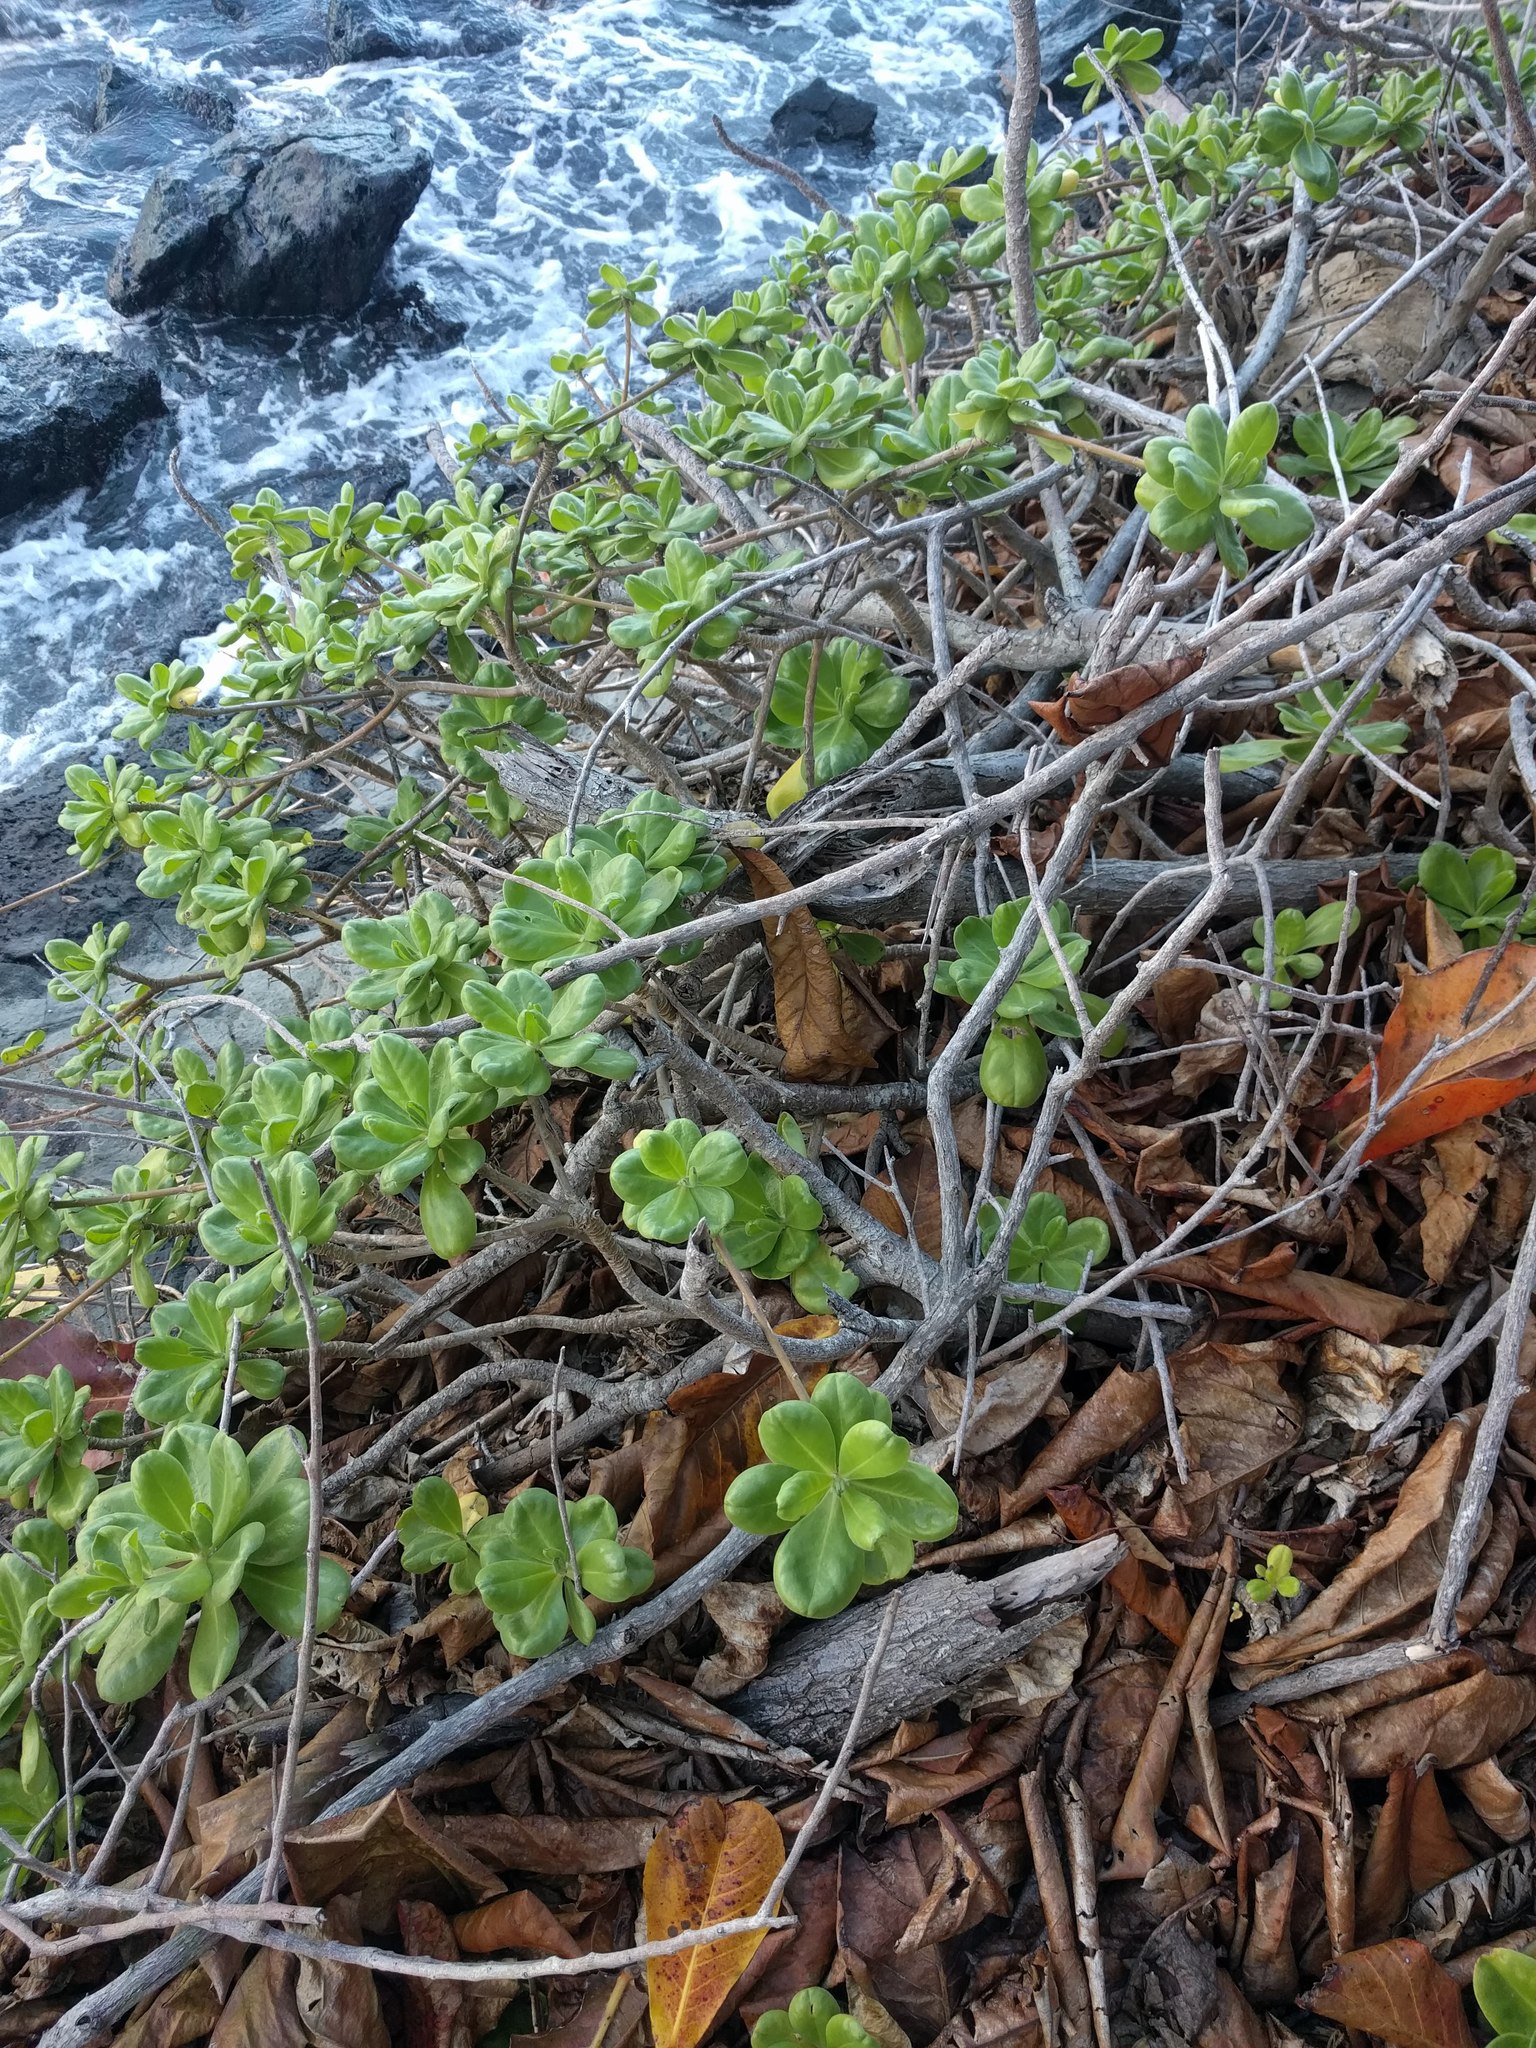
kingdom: Plantae
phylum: Tracheophyta
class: Magnoliopsida
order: Asterales
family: Goodeniaceae
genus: Scaevola
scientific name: Scaevola taccada
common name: Sea lettucetree
